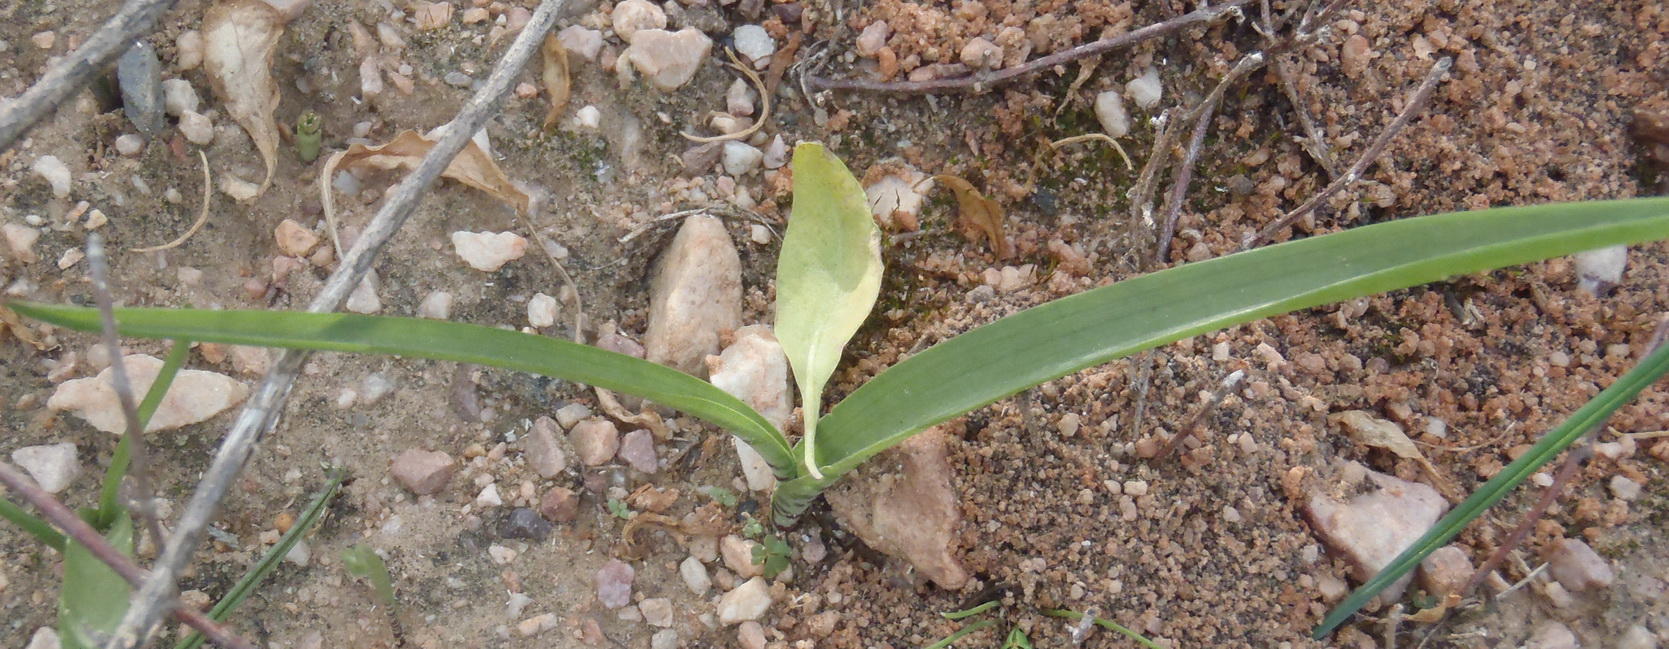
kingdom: Plantae
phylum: Tracheophyta
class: Liliopsida
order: Asparagales
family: Asparagaceae
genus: Lachenalia
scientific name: Lachenalia haarlemensis
